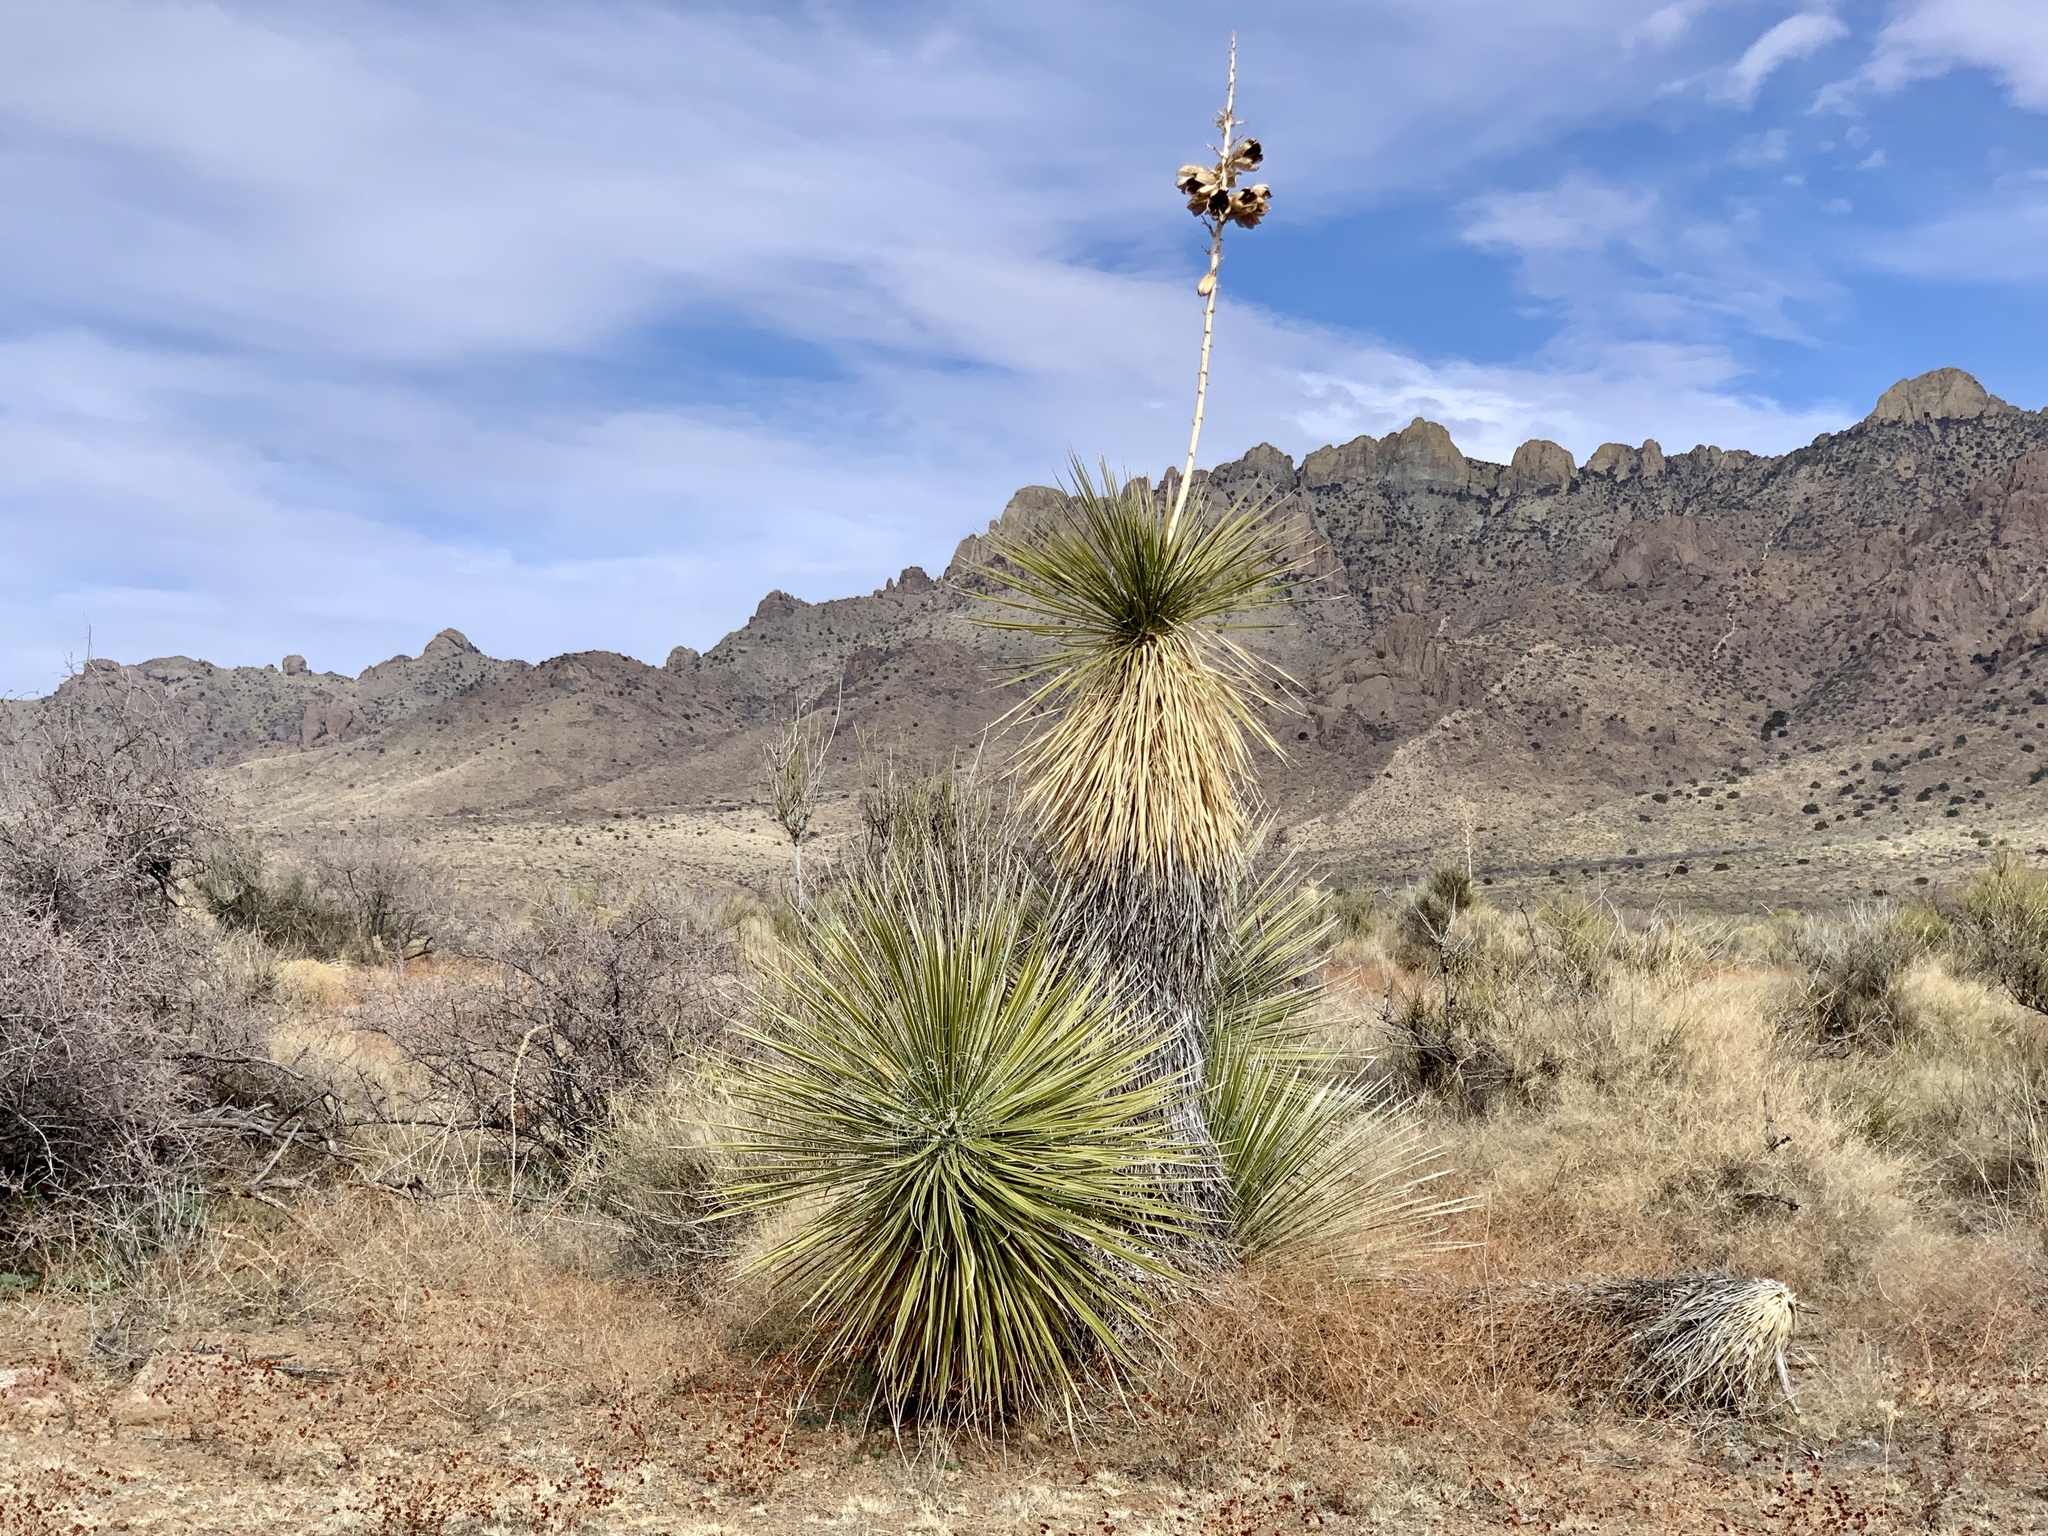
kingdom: Plantae
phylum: Tracheophyta
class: Liliopsida
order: Asparagales
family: Asparagaceae
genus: Yucca
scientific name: Yucca elata
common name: Palmella
